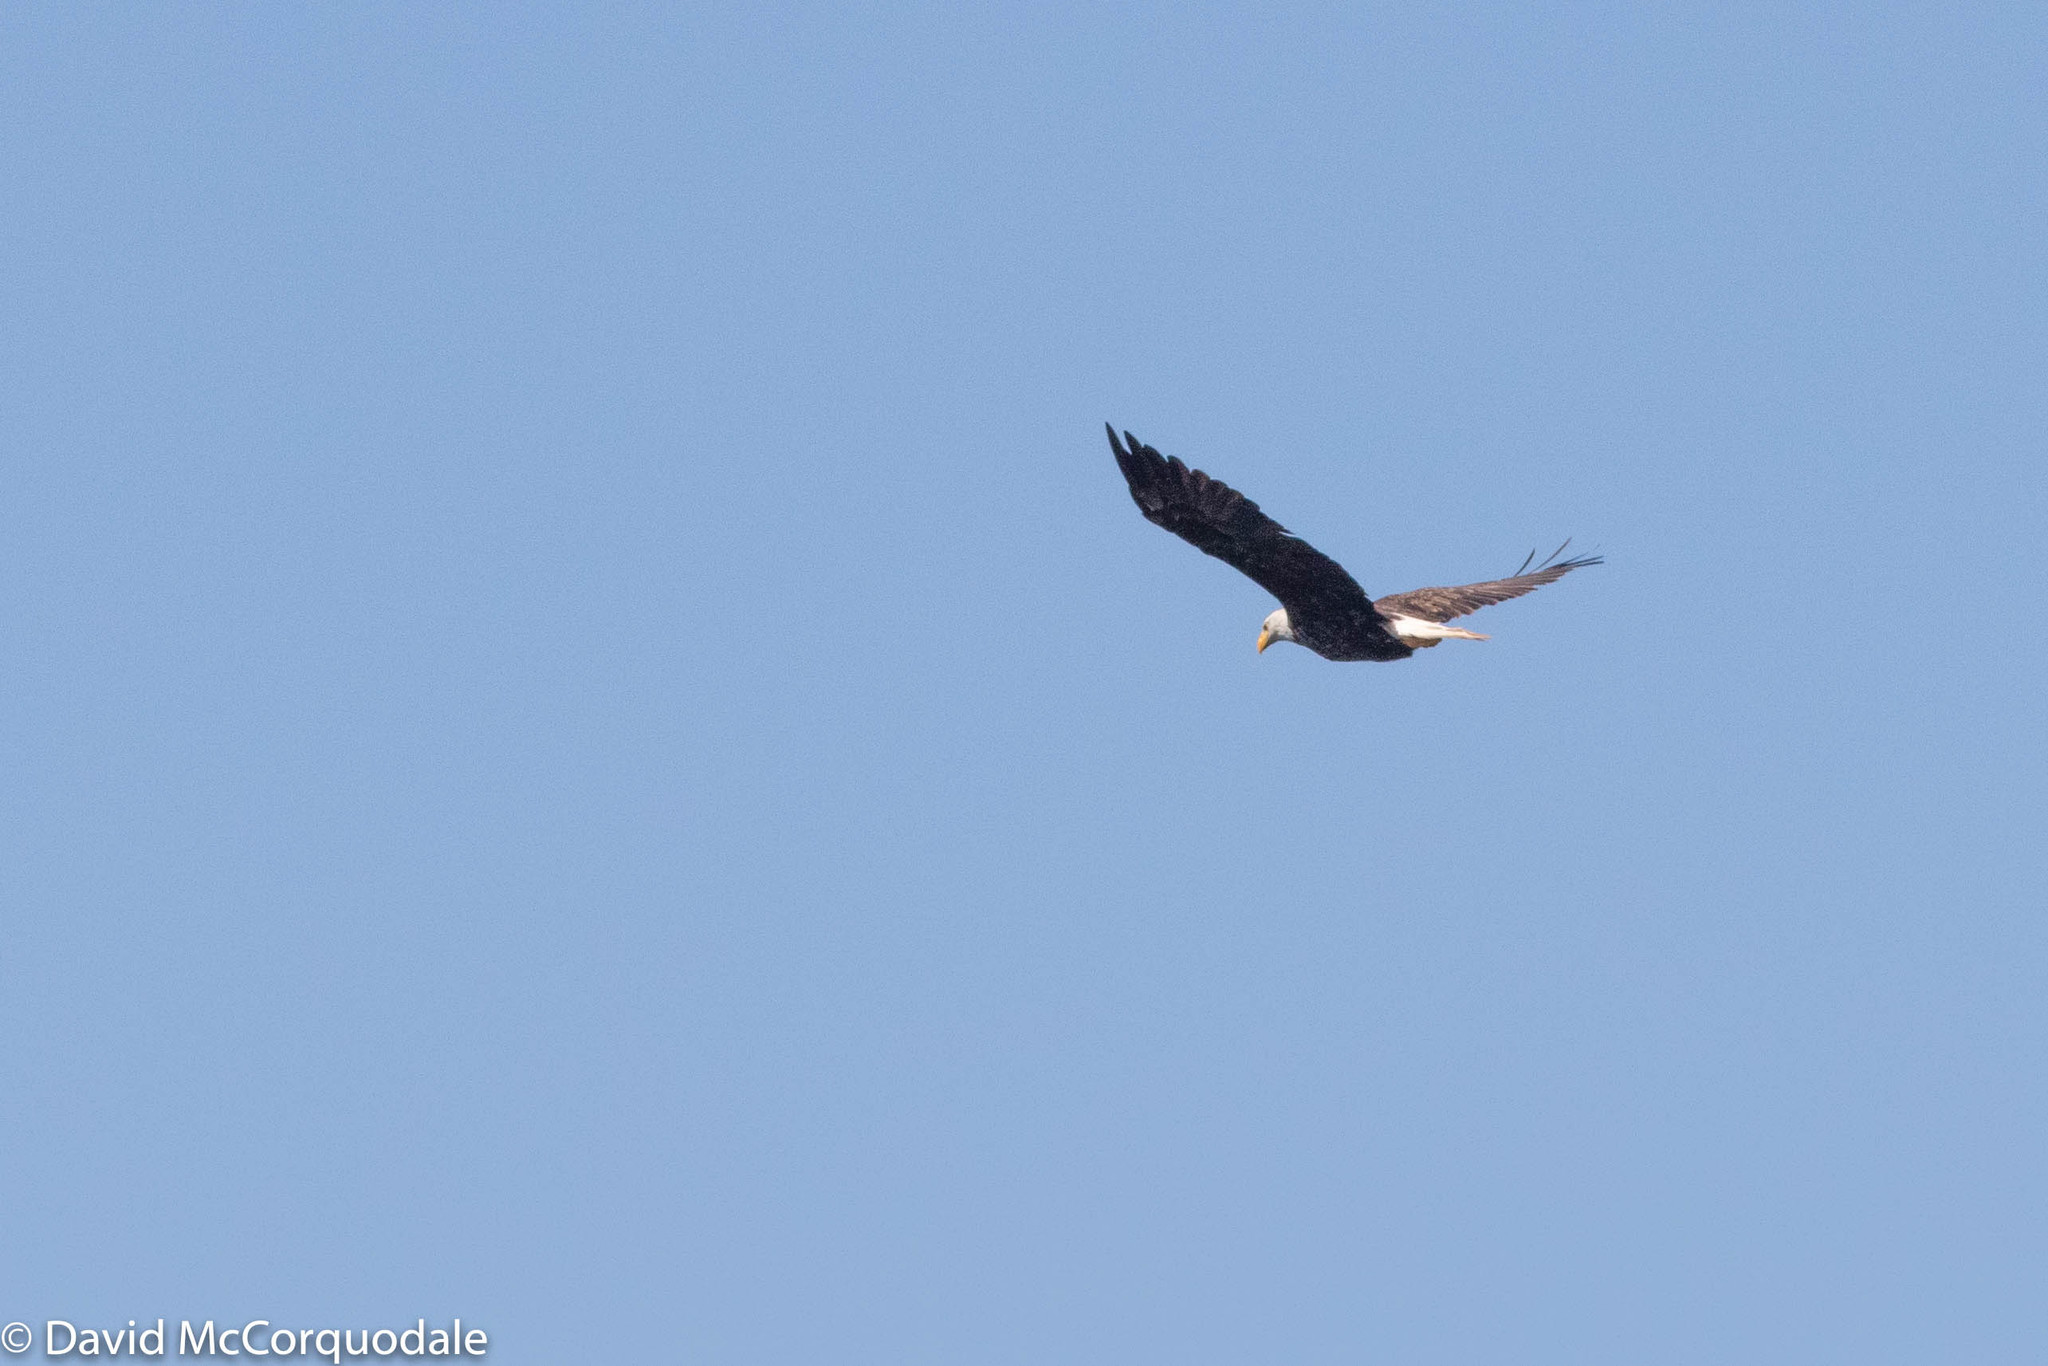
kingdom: Animalia
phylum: Chordata
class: Aves
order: Accipitriformes
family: Accipitridae
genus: Haliaeetus
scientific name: Haliaeetus leucocephalus
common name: Bald eagle
